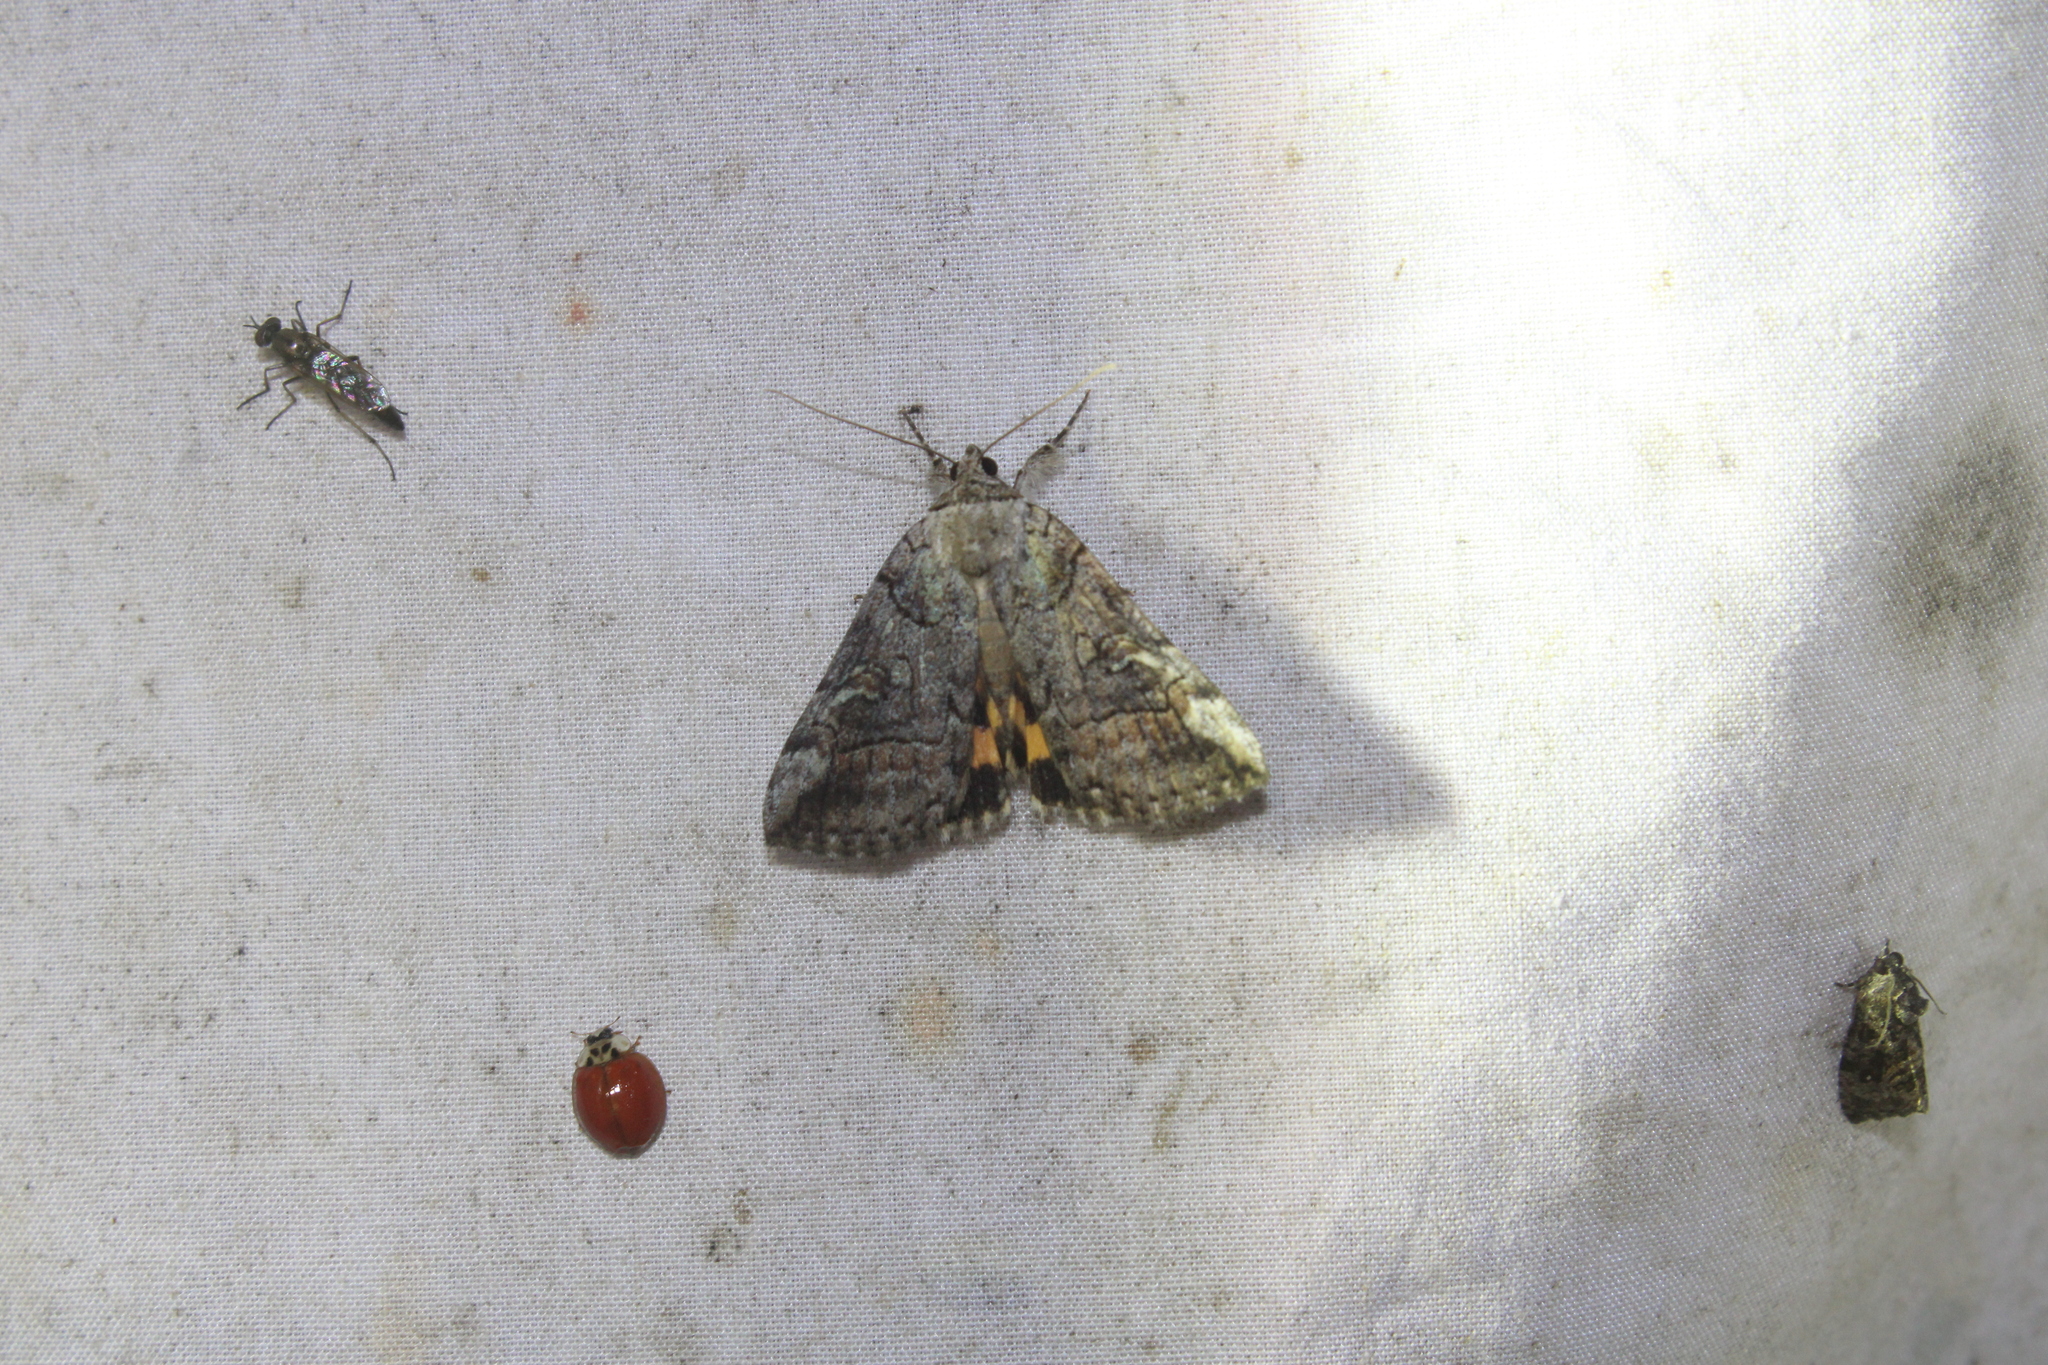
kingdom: Animalia
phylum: Arthropoda
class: Insecta
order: Lepidoptera
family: Erebidae
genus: Catocala
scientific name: Catocala similis
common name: Similar underwing
